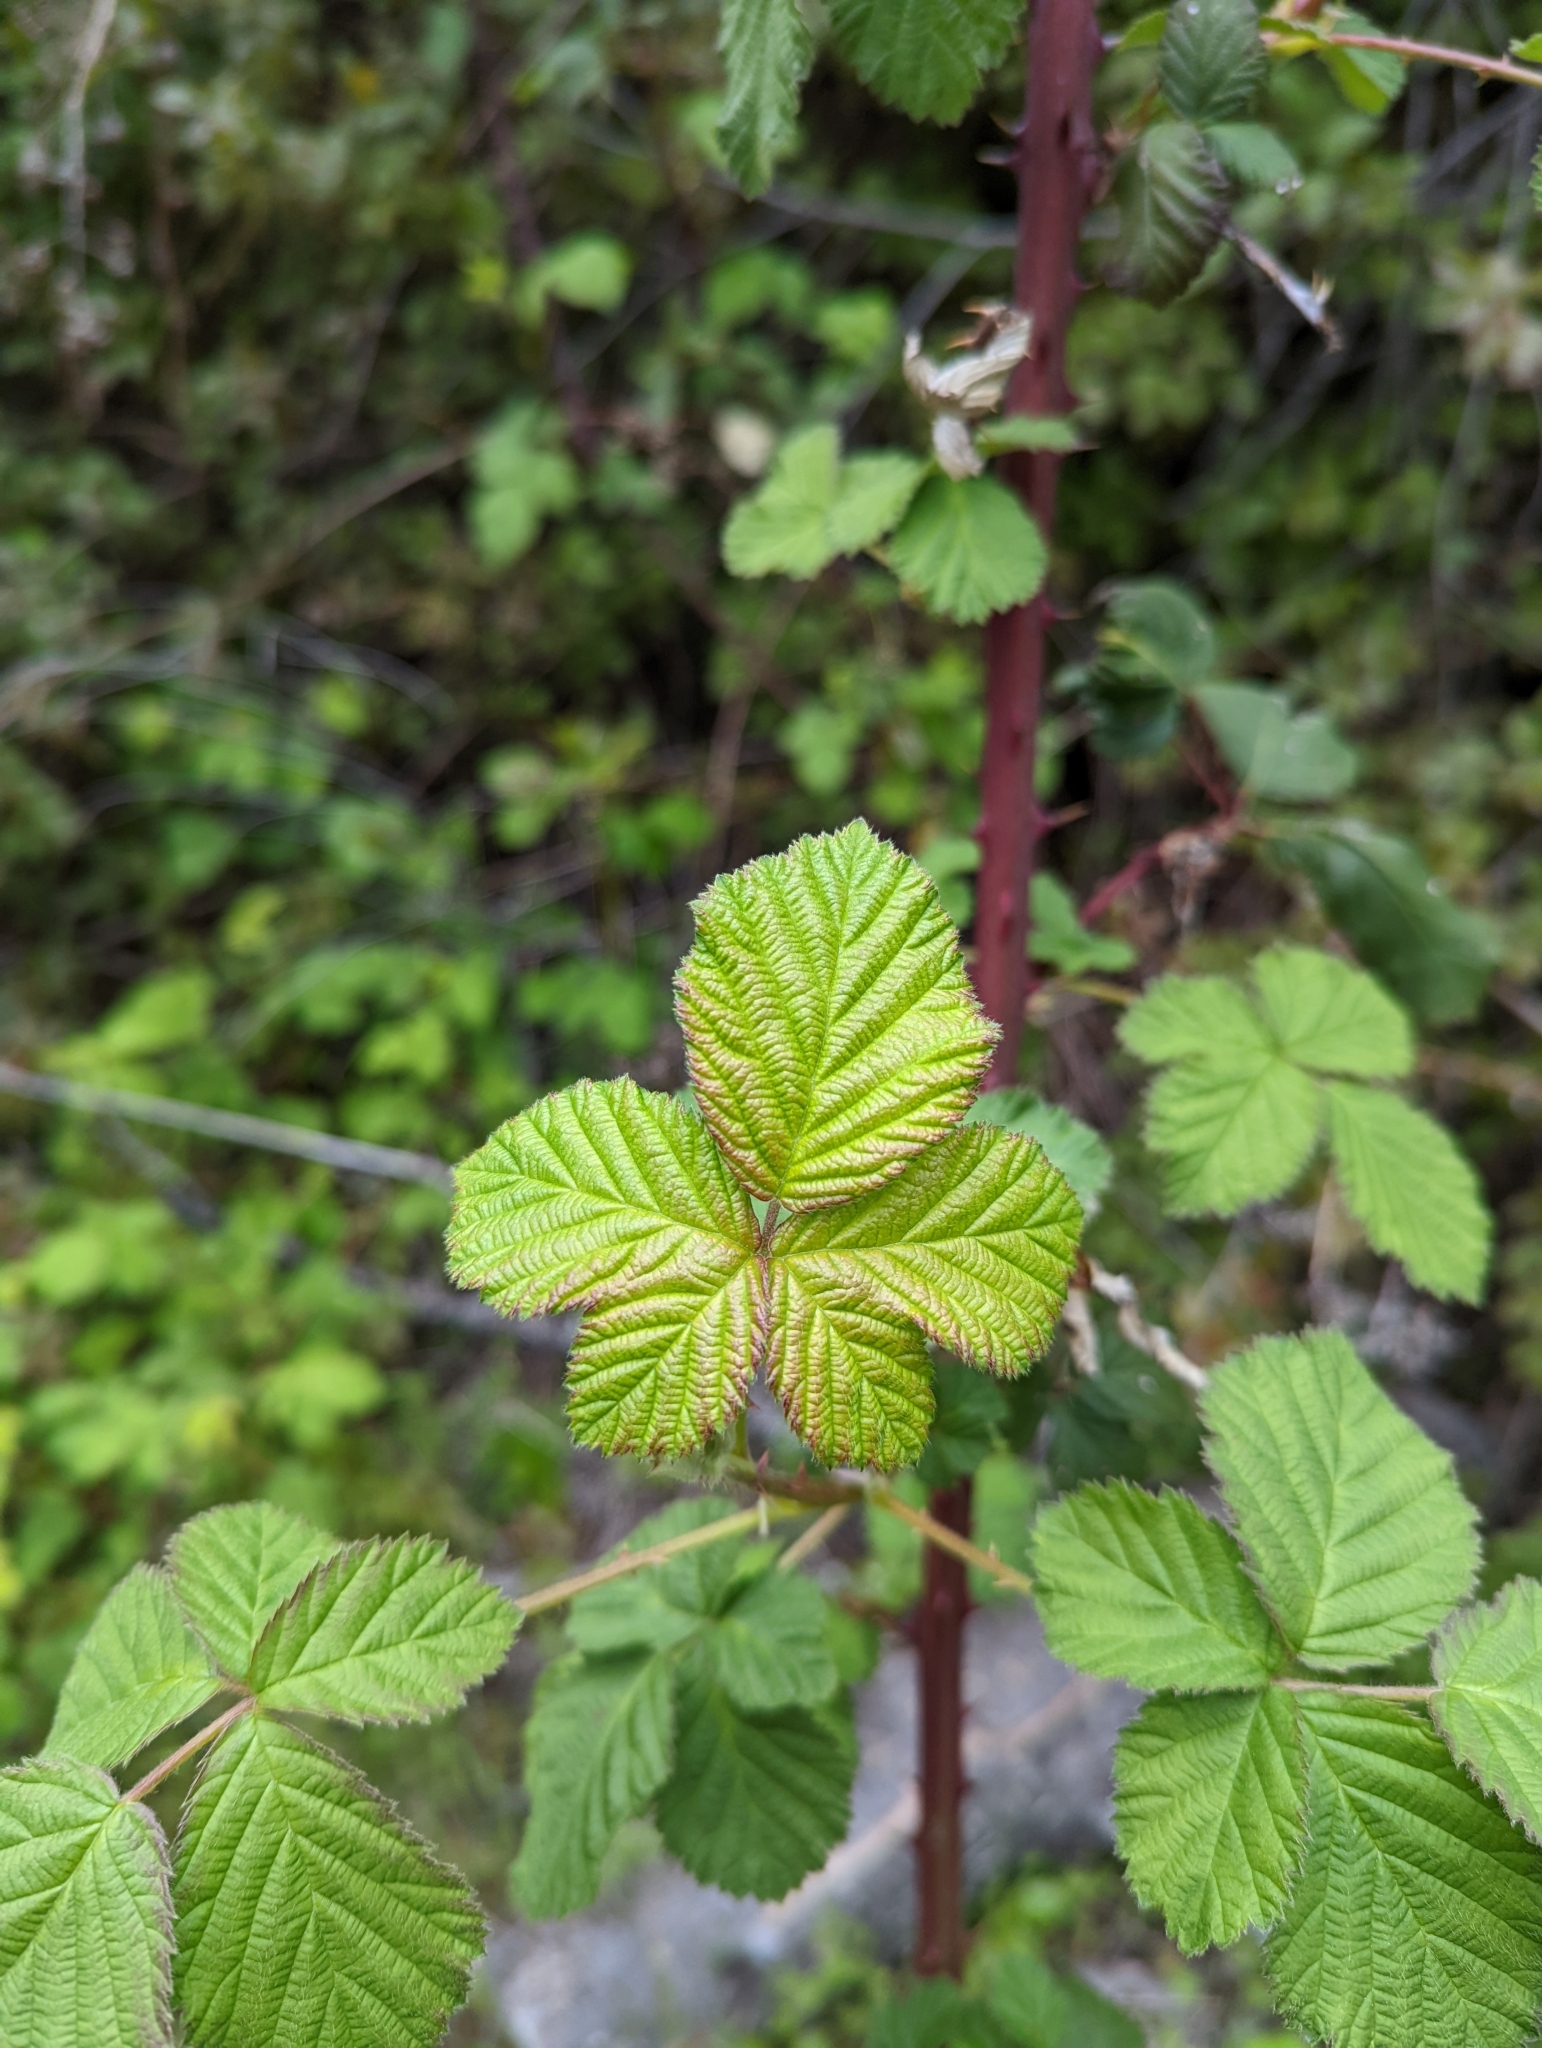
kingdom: Plantae
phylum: Tracheophyta
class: Magnoliopsida
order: Rosales
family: Rosaceae
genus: Rubus
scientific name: Rubus bifrons
